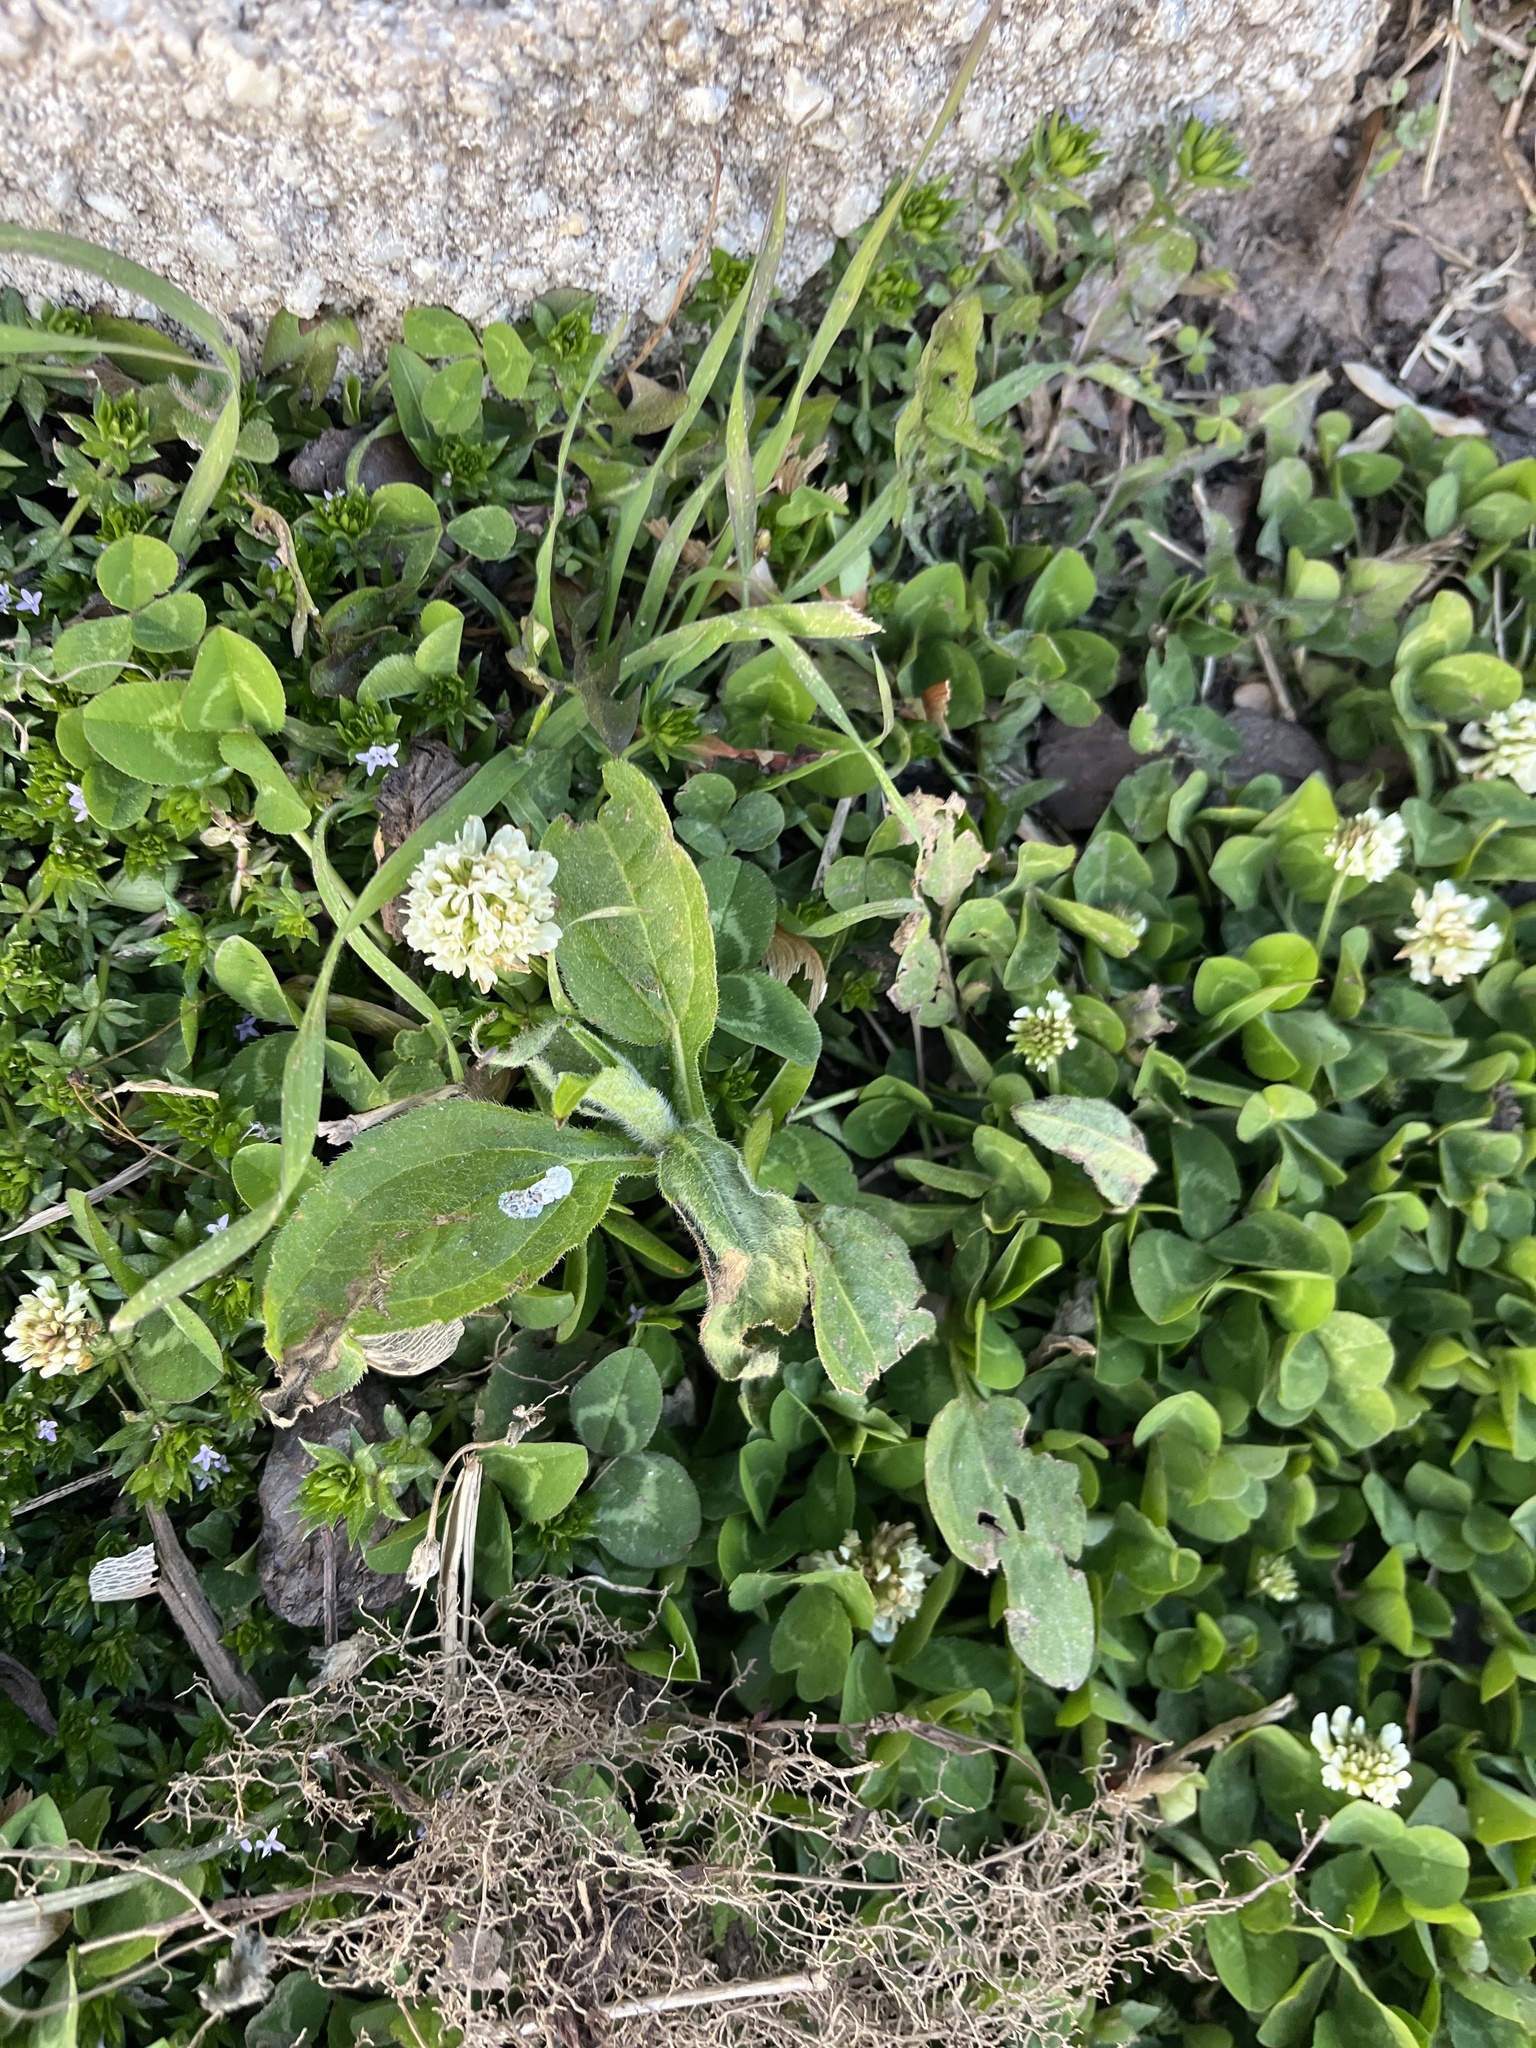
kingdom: Plantae
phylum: Tracheophyta
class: Magnoliopsida
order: Fabales
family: Fabaceae
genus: Trifolium
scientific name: Trifolium repens
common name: White clover
